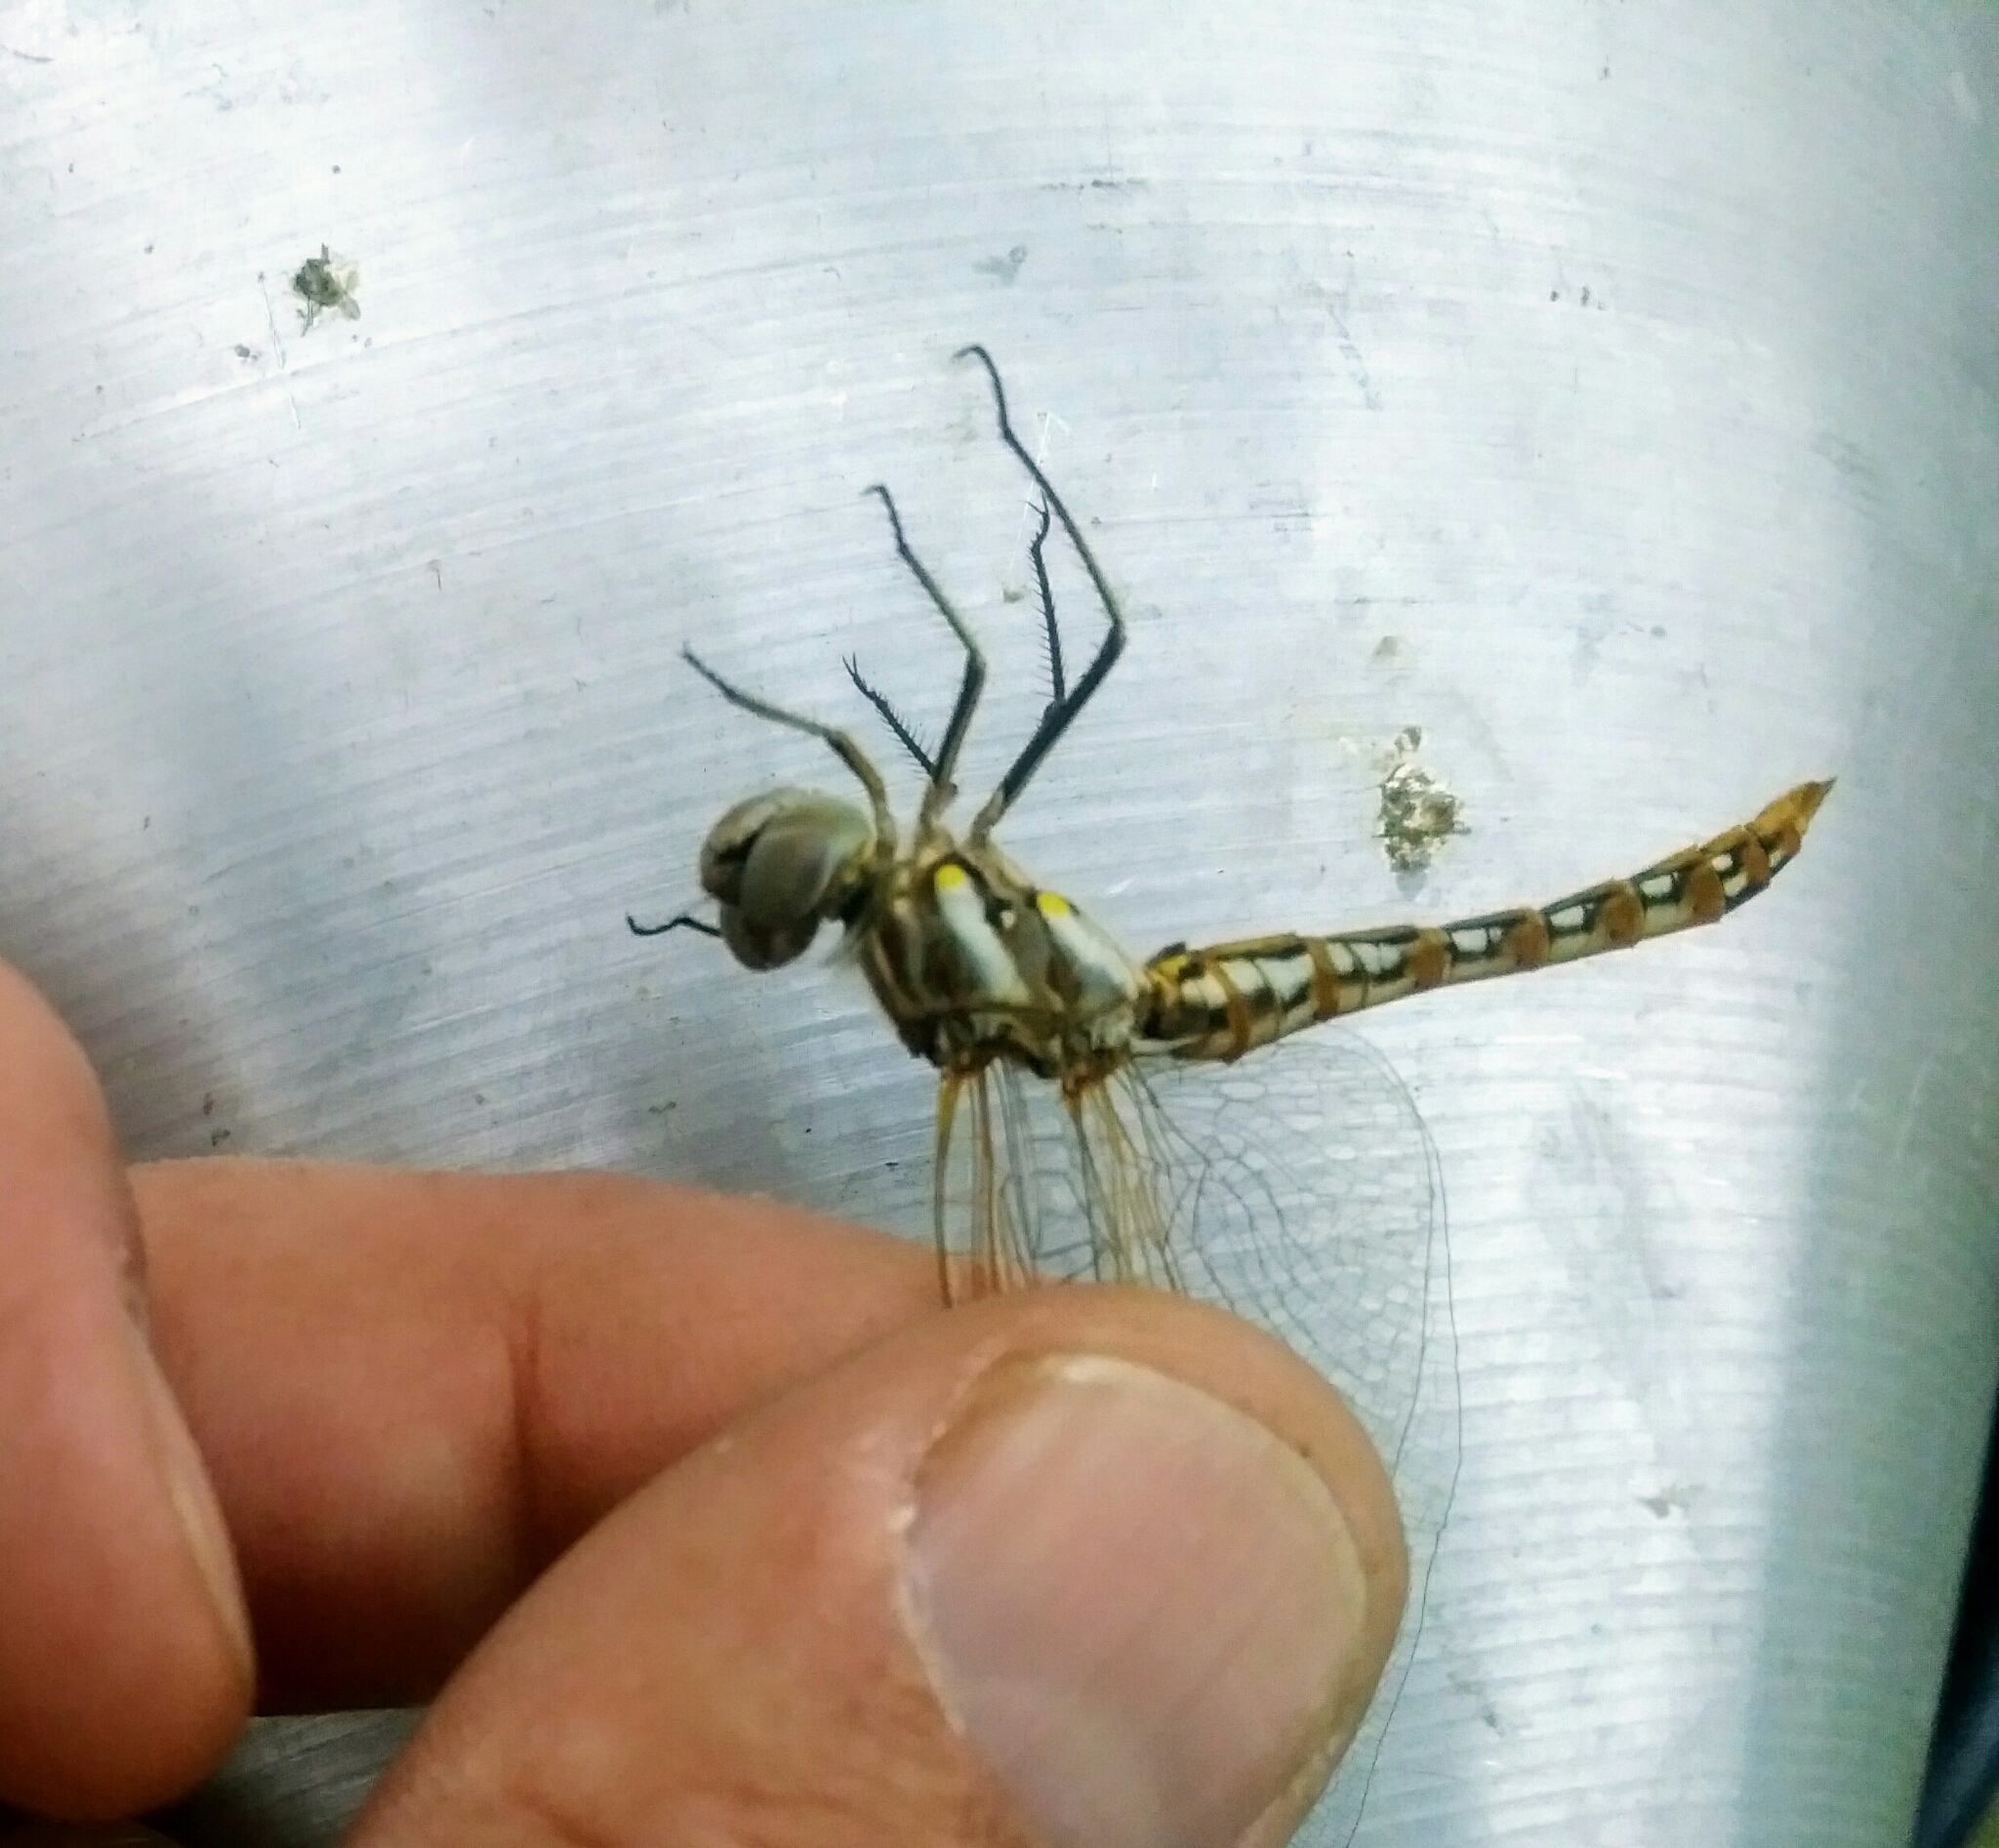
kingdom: Animalia
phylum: Arthropoda
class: Insecta
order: Odonata
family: Libellulidae
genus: Sympetrum
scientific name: Sympetrum corruptum
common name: Variegated meadowhawk
